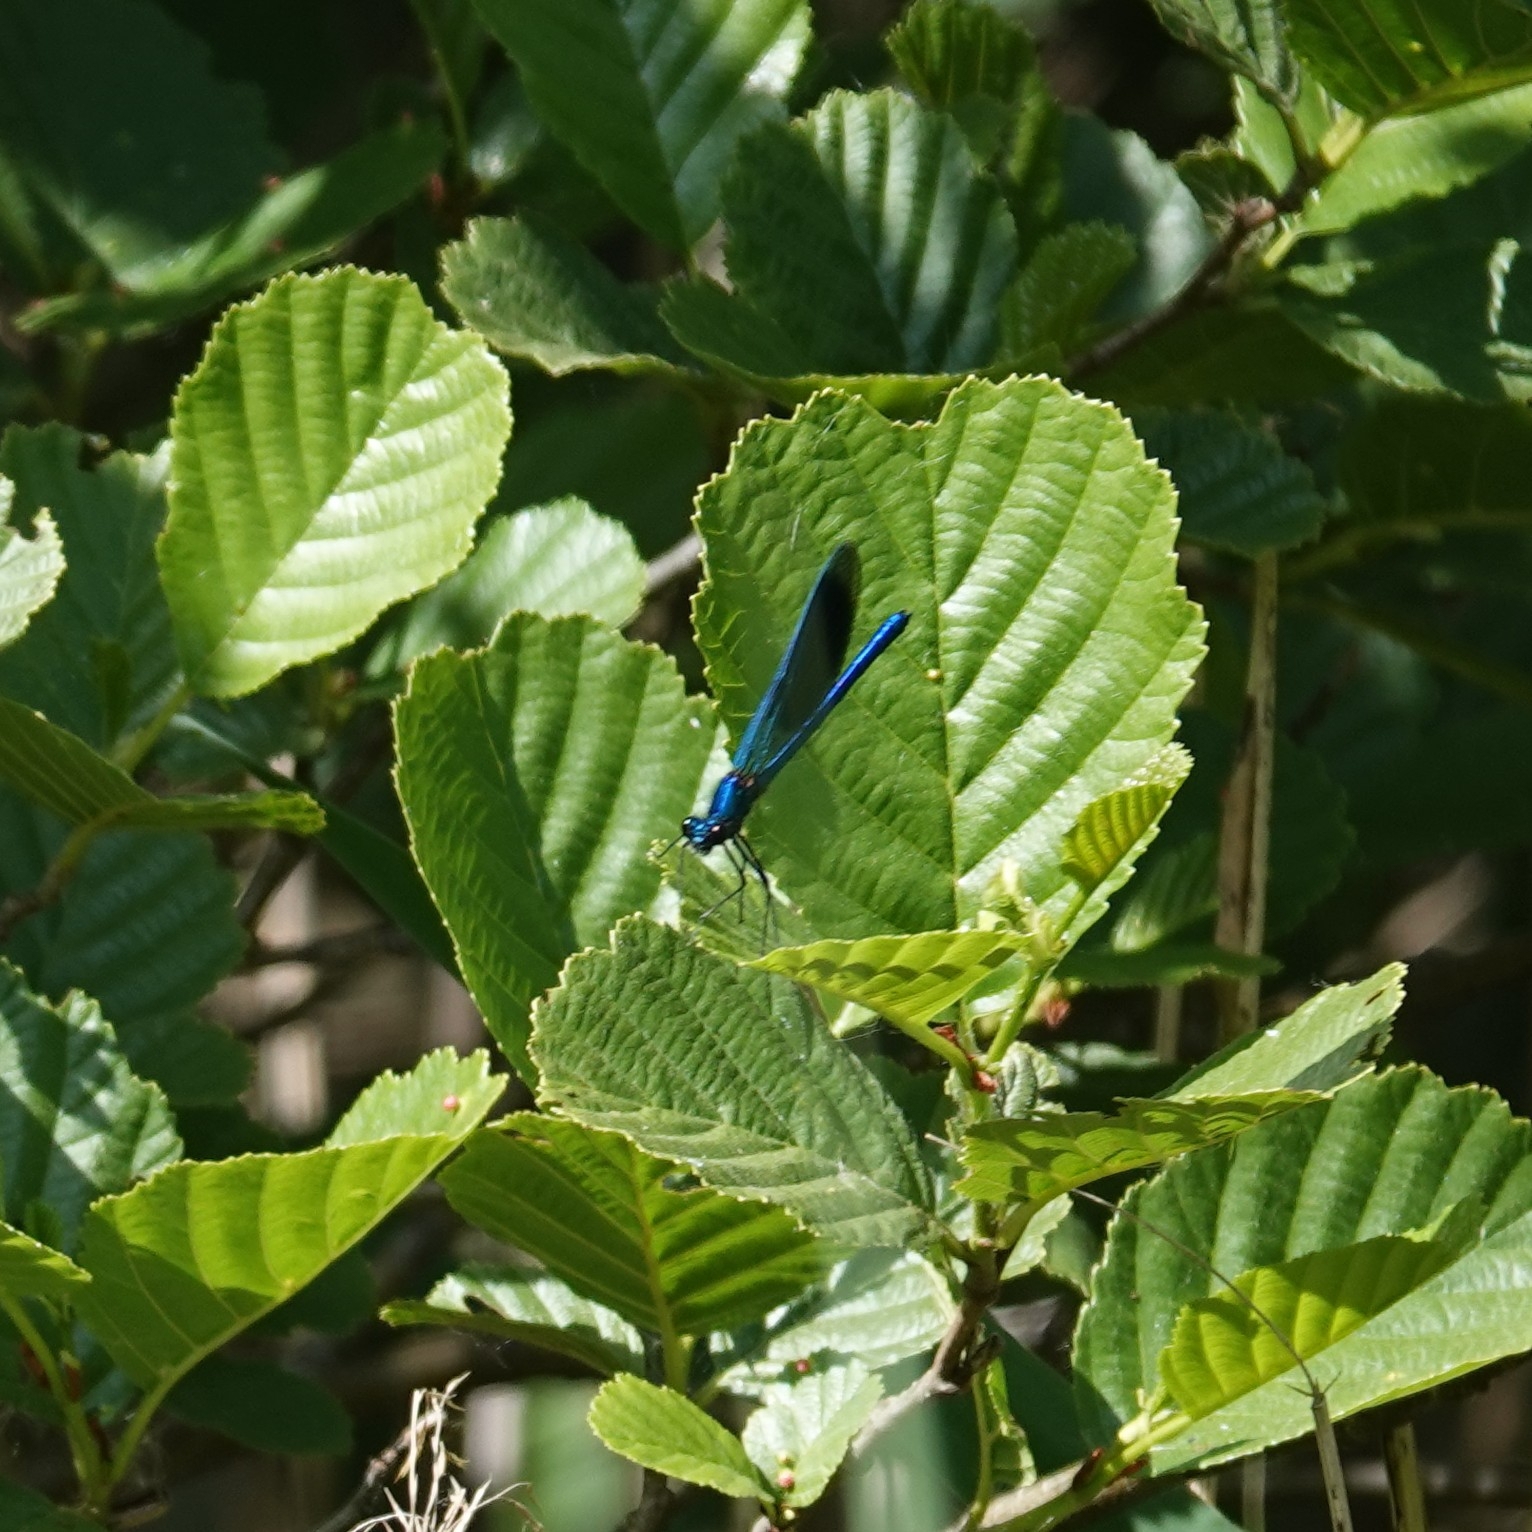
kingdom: Animalia
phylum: Arthropoda
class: Insecta
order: Odonata
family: Calopterygidae
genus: Calopteryx
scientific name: Calopteryx splendens
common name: Banded demoiselle
